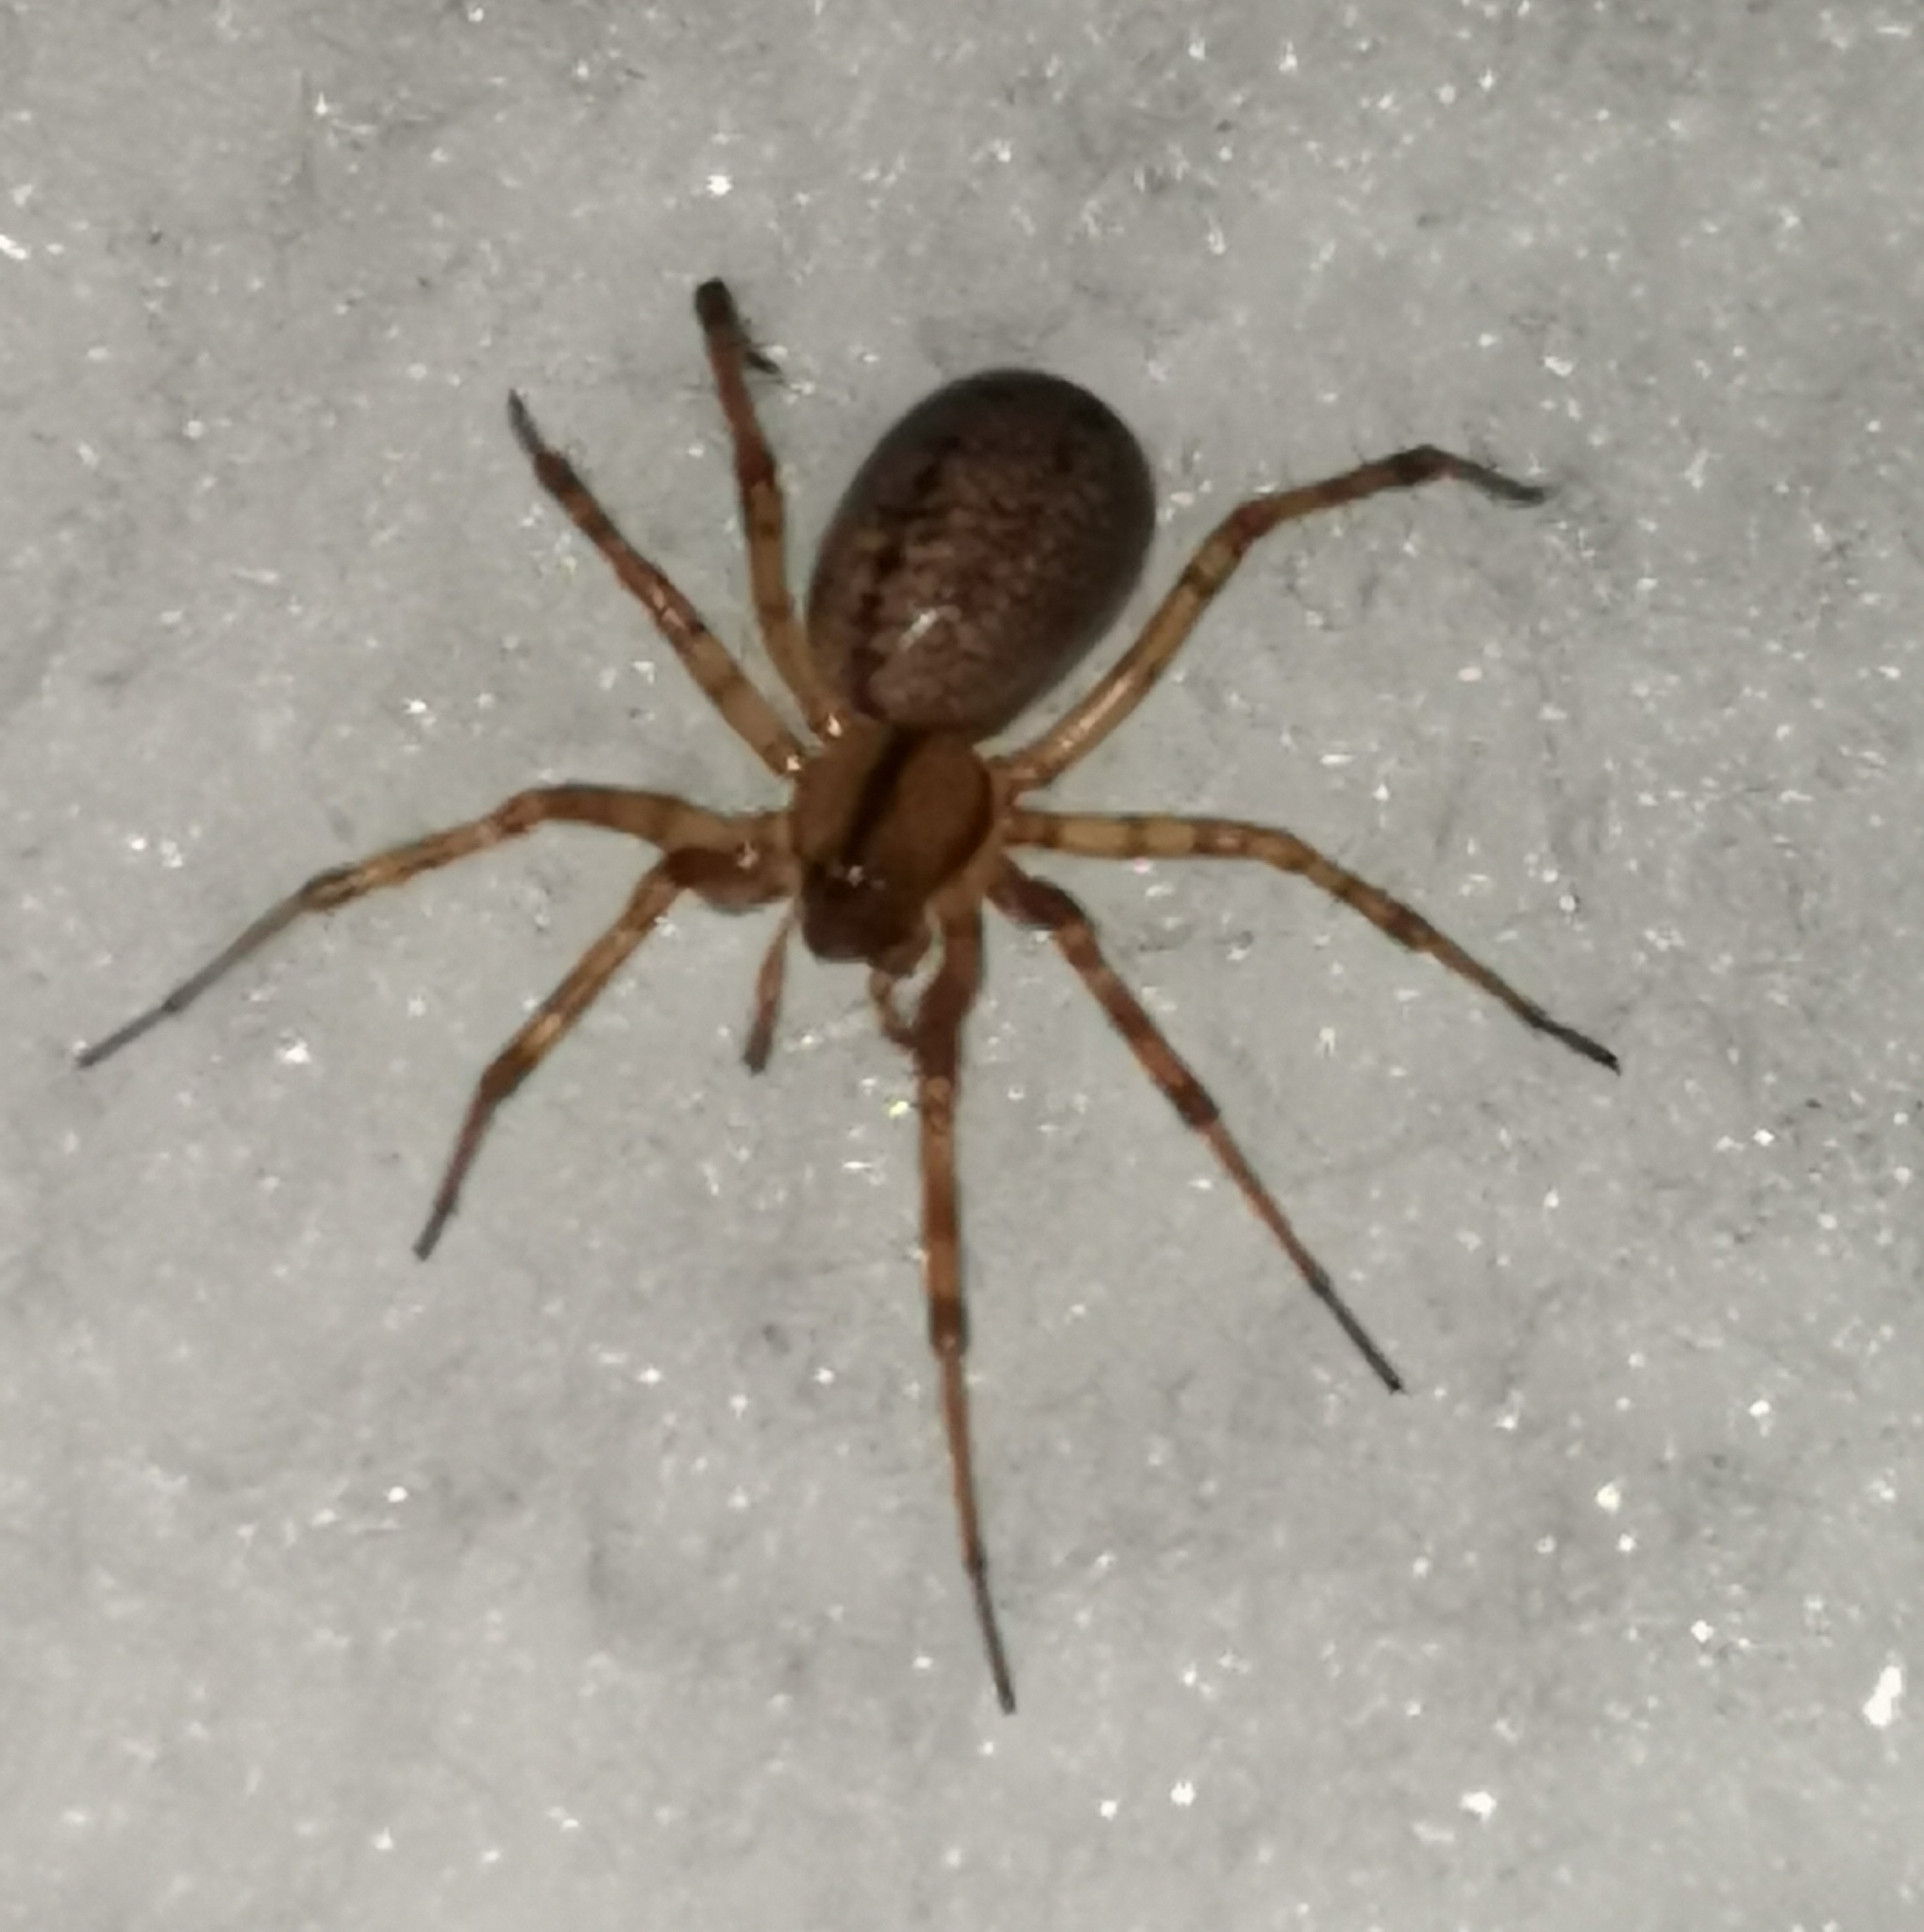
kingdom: Animalia
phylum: Arthropoda
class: Arachnida
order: Araneae
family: Linyphiidae
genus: Stemonyphantes
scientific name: Stemonyphantes lineatus
